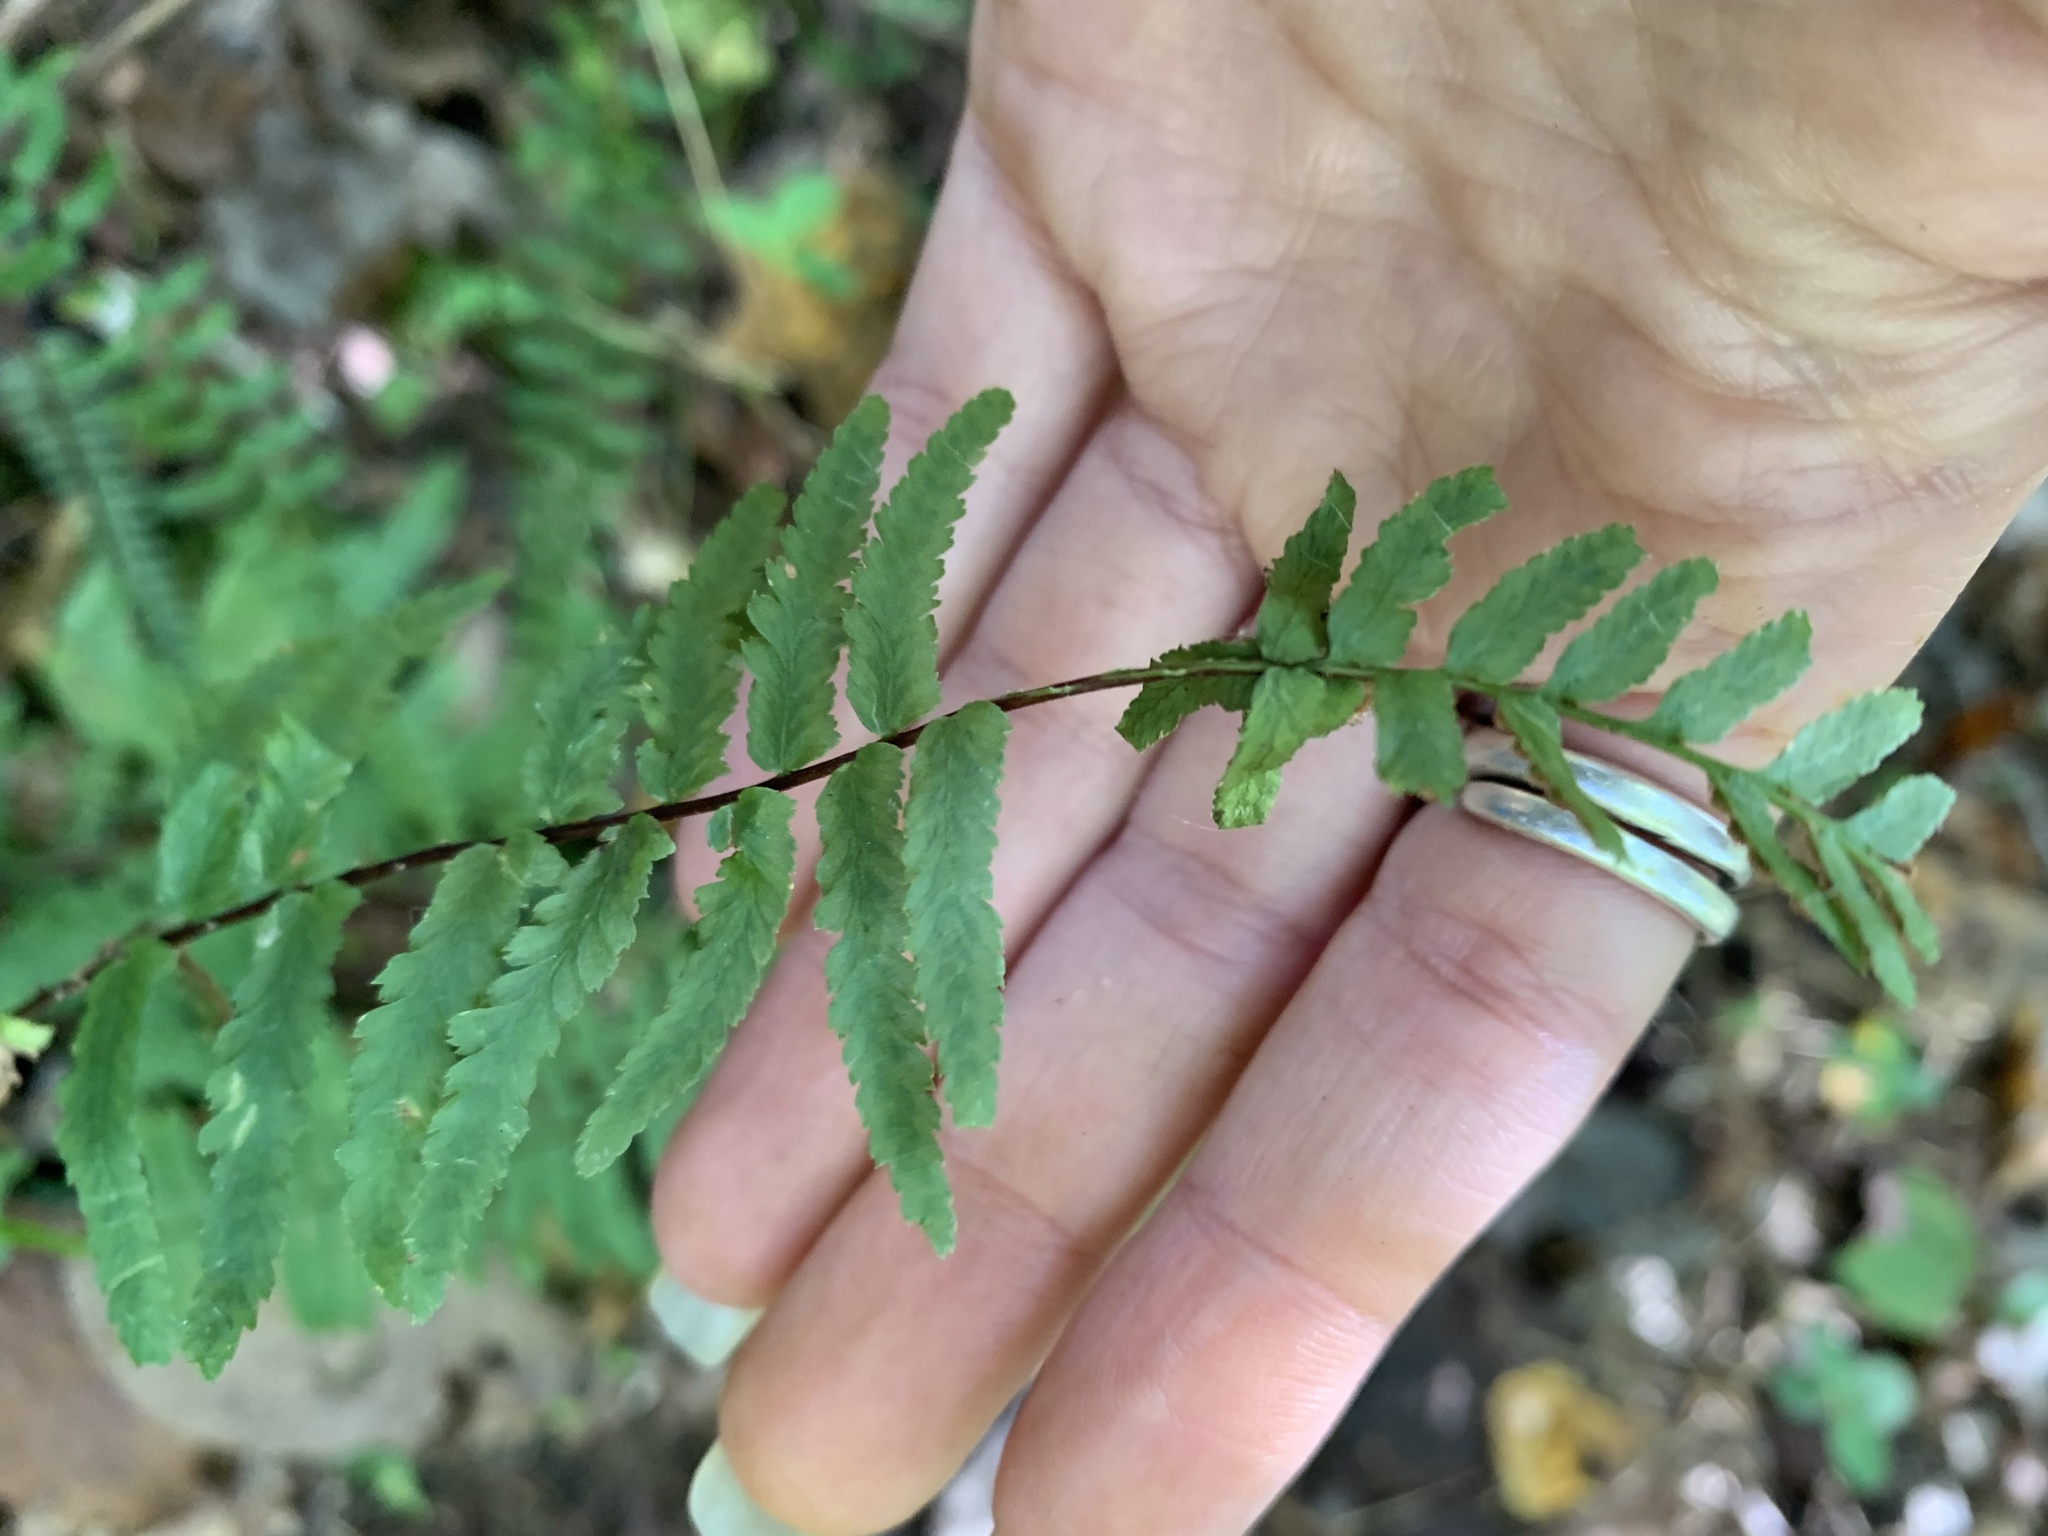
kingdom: Plantae
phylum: Tracheophyta
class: Polypodiopsida
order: Polypodiales
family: Aspleniaceae
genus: Asplenium
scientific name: Asplenium platyneuron
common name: Ebony spleenwort
